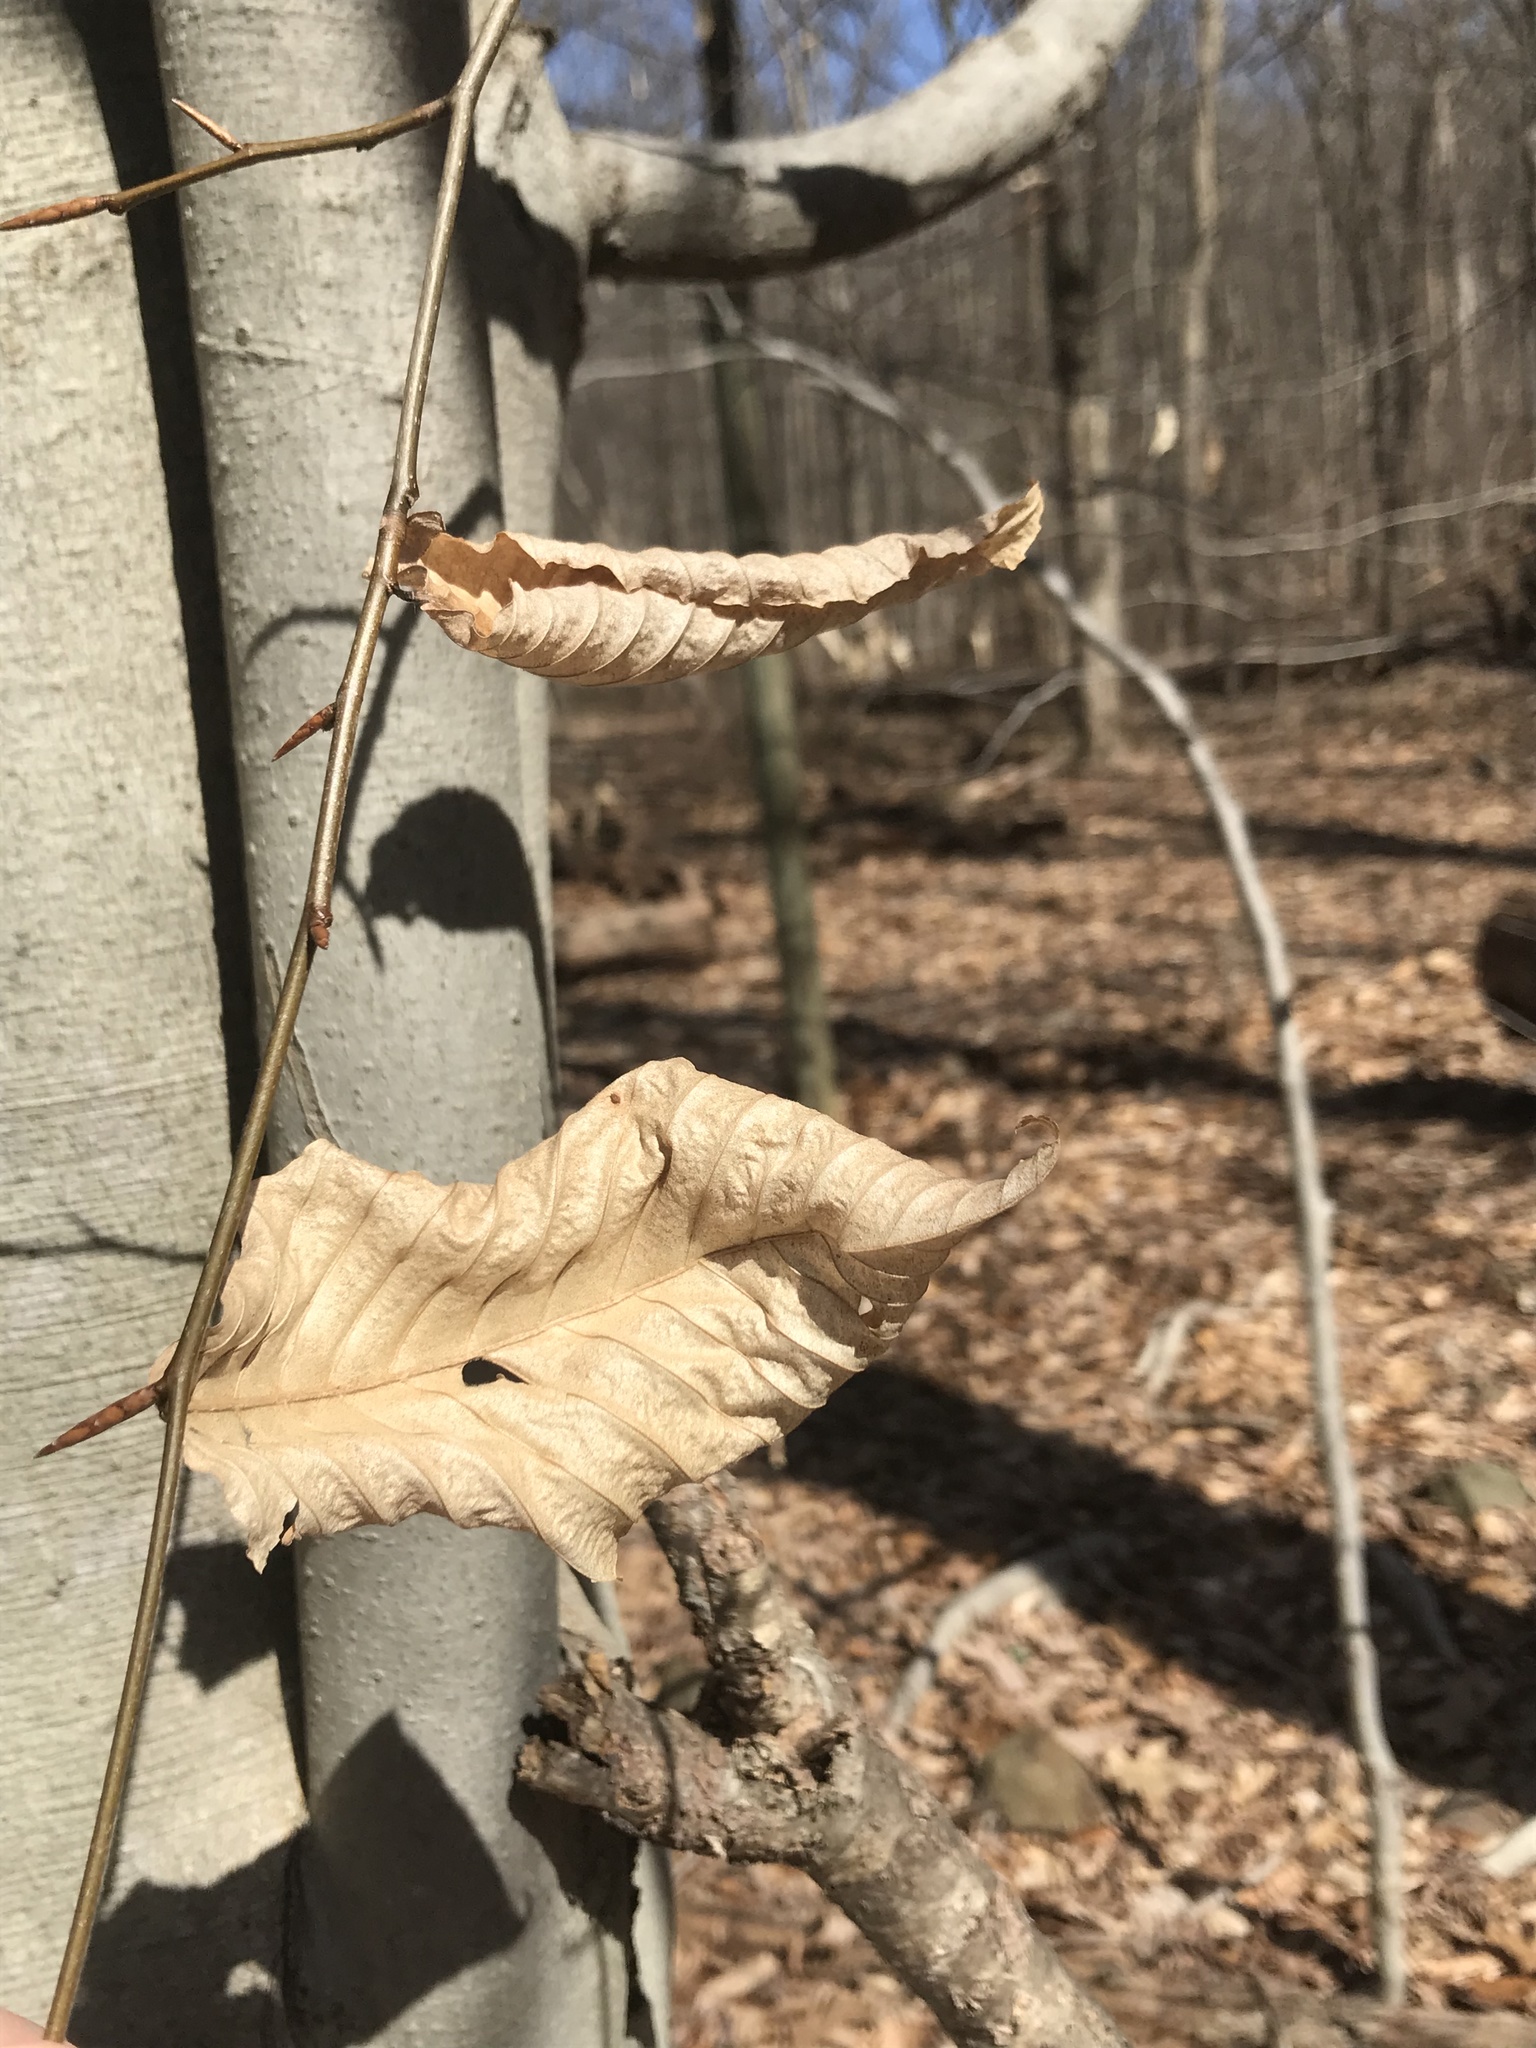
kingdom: Plantae
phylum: Tracheophyta
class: Magnoliopsida
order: Fagales
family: Fagaceae
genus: Fagus
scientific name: Fagus grandifolia
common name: American beech
